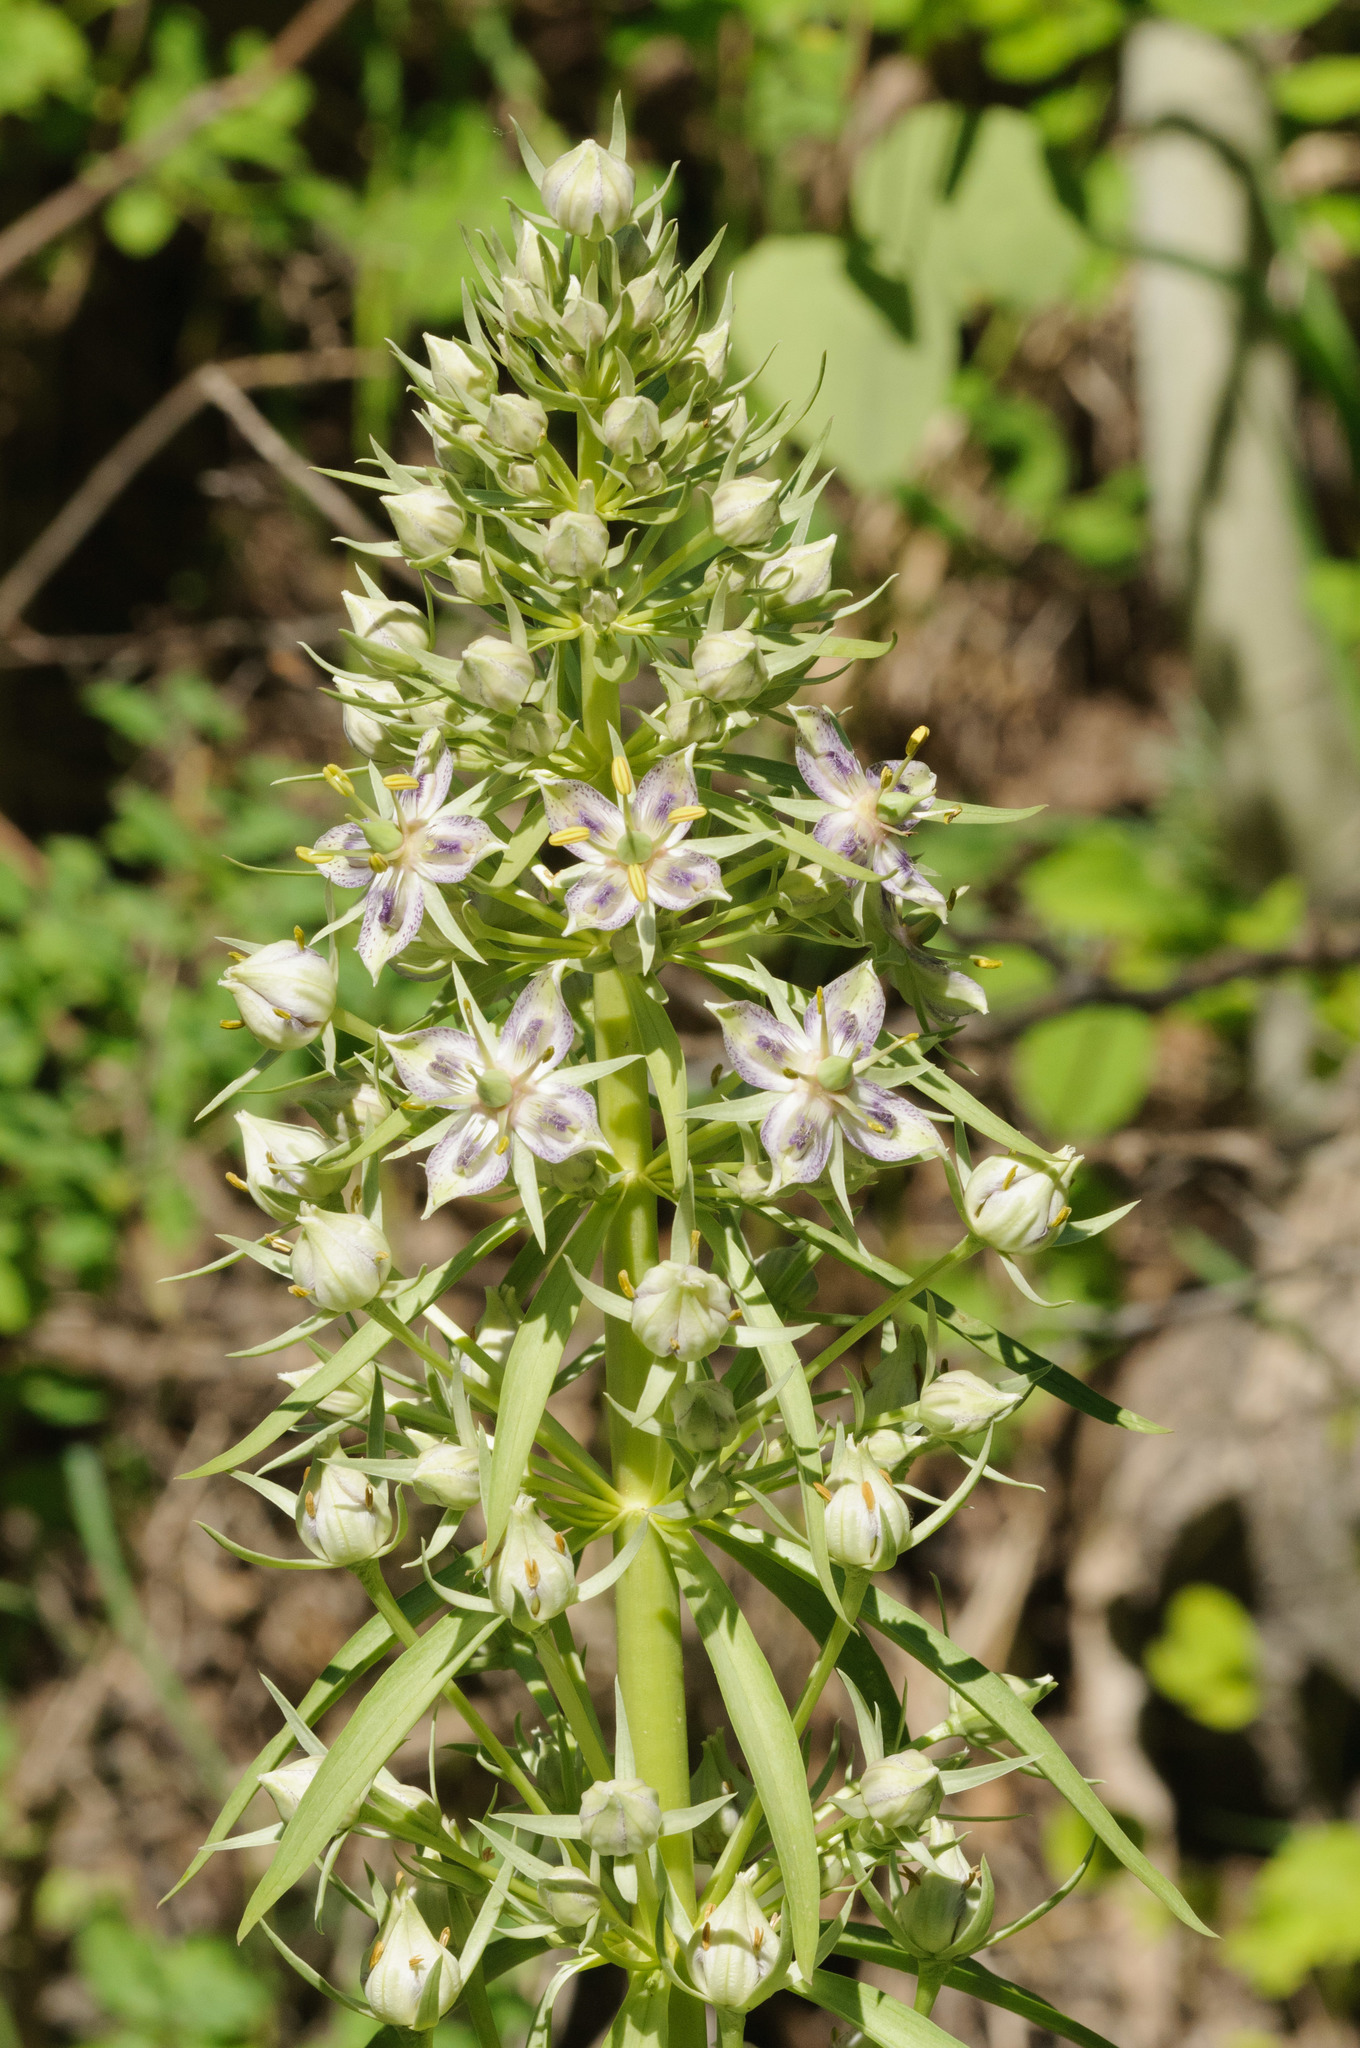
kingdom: Plantae
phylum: Tracheophyta
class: Magnoliopsida
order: Gentianales
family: Gentianaceae
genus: Frasera
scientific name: Frasera speciosa
